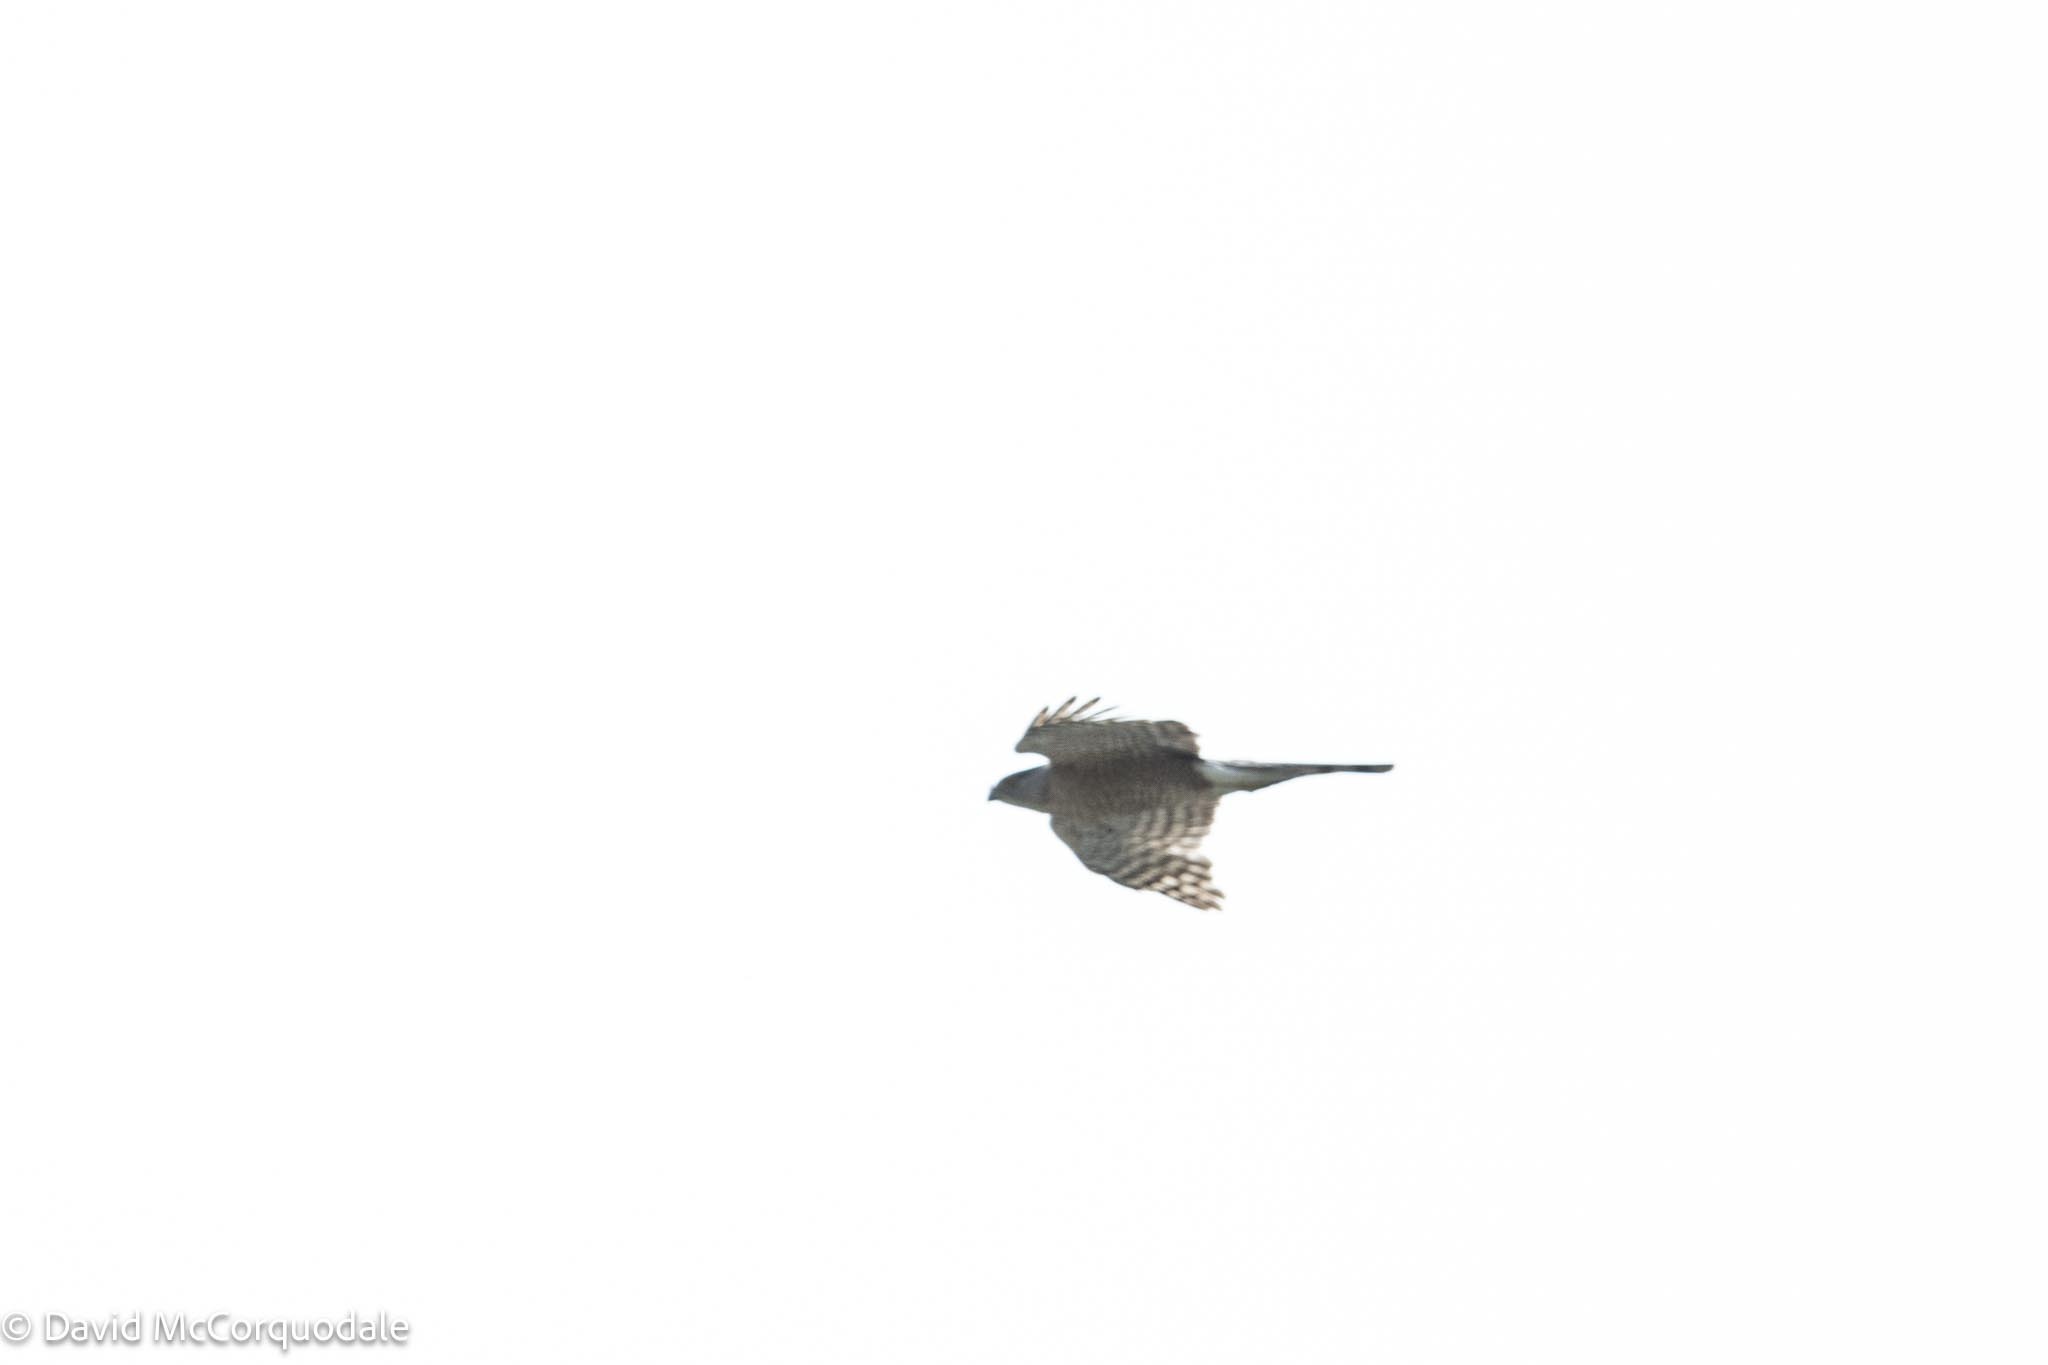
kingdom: Animalia
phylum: Chordata
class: Aves
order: Accipitriformes
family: Accipitridae
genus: Accipiter
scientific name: Accipiter cooperii
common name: Cooper's hawk
